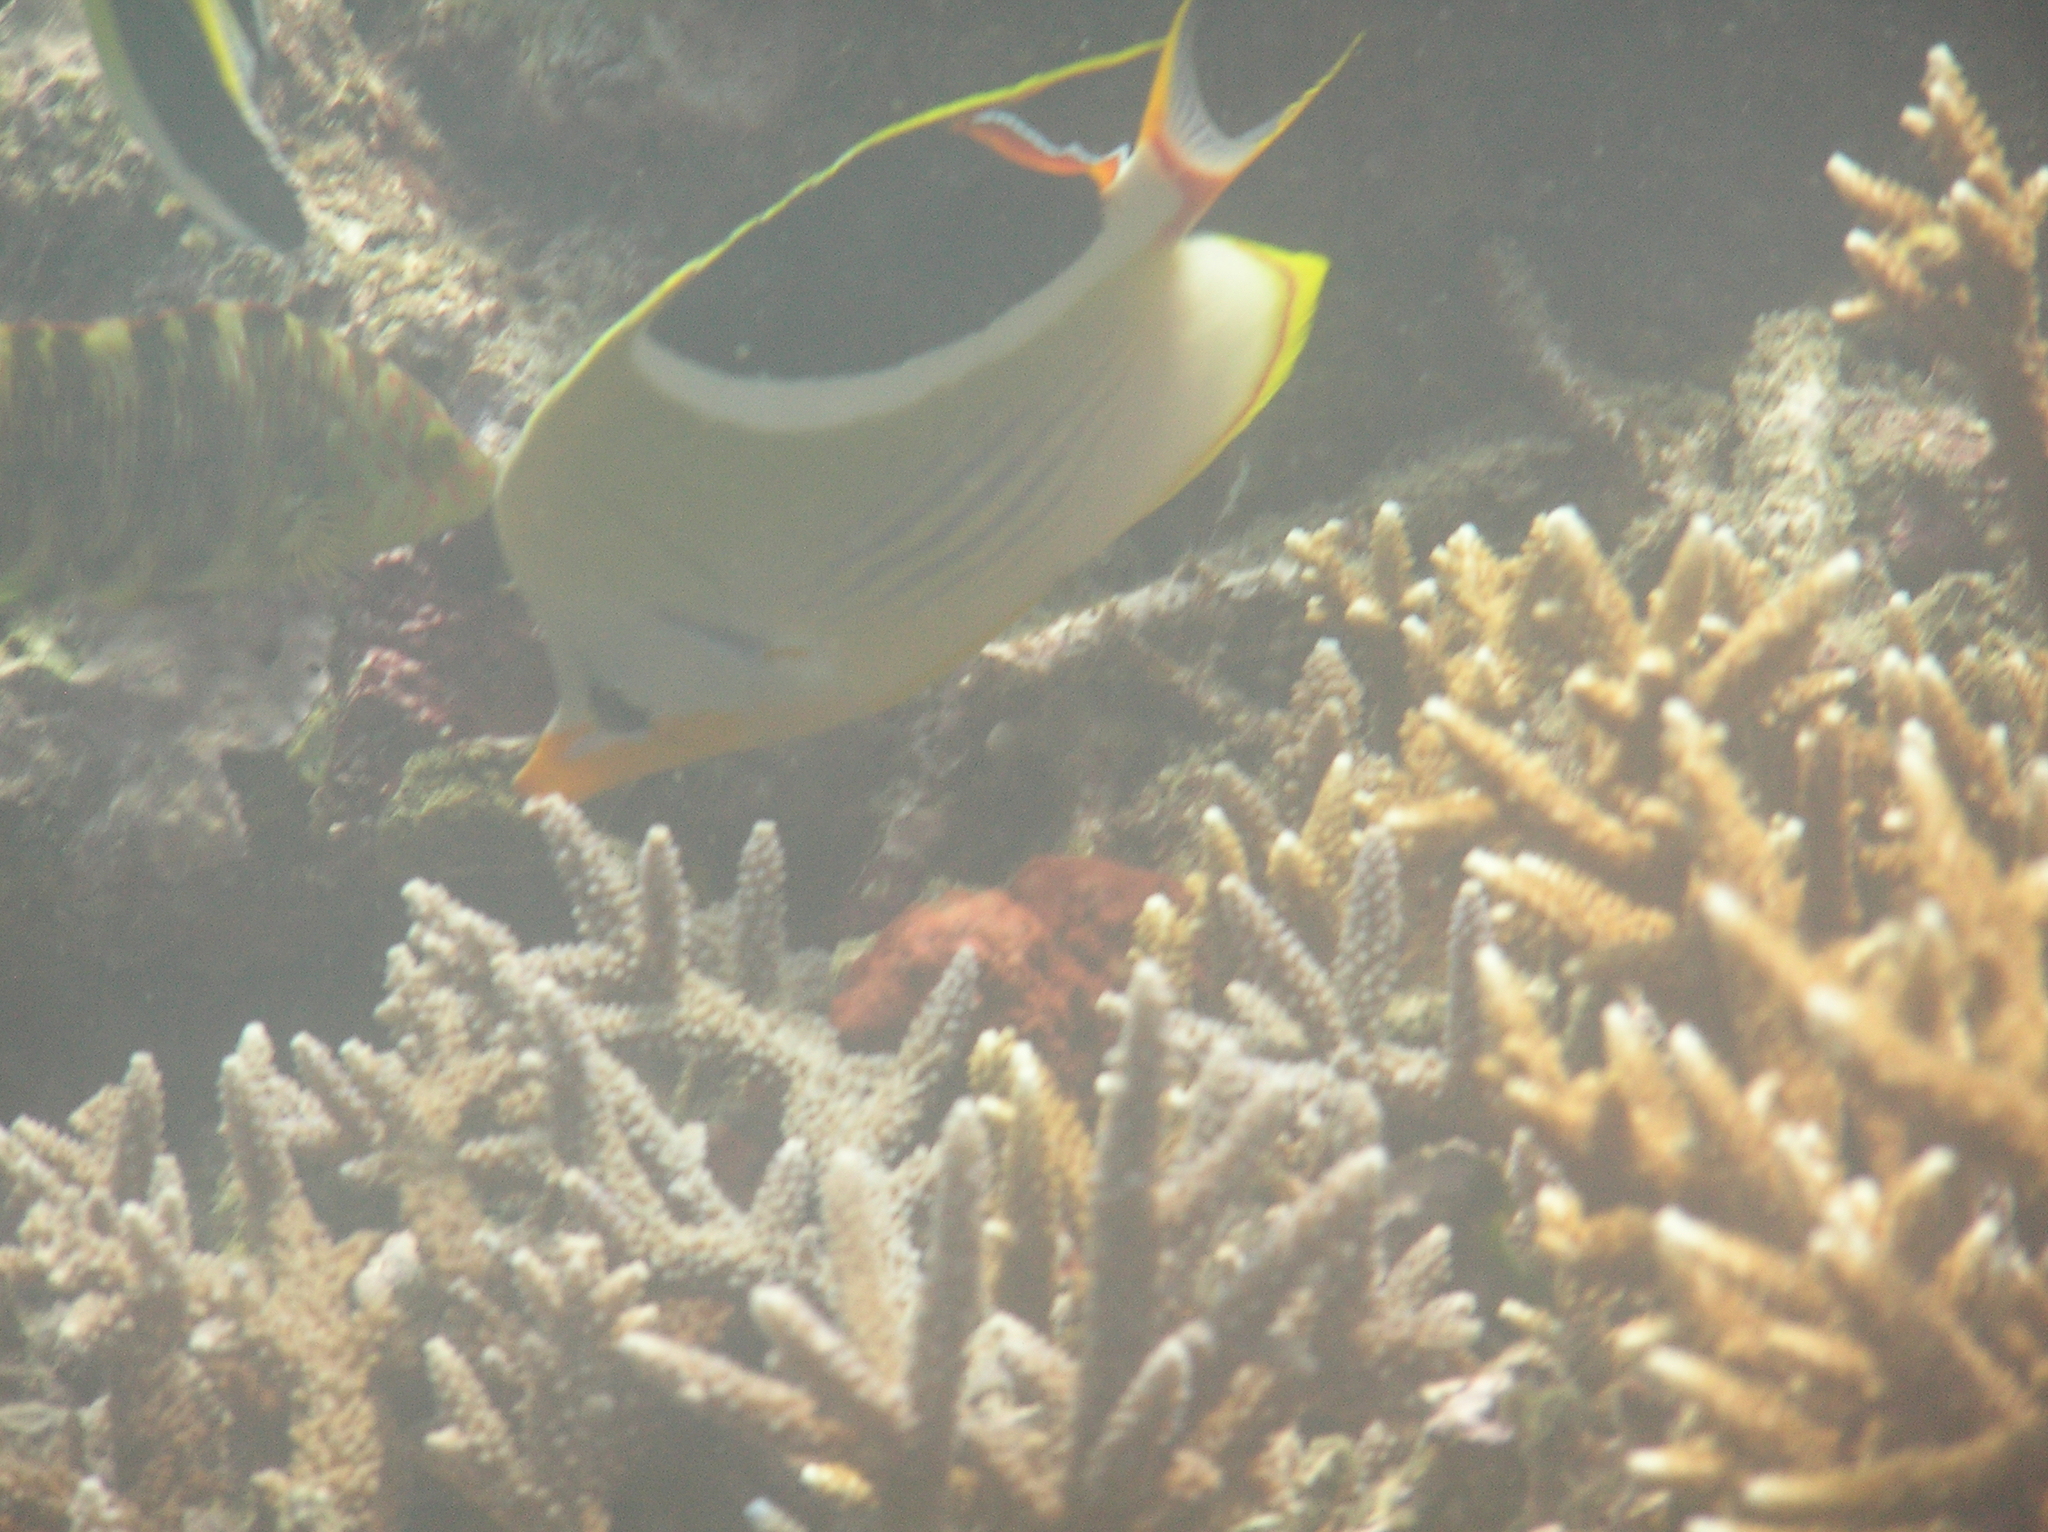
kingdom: Animalia
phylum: Chordata
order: Perciformes
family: Labridae
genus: Cheilinus
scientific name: Cheilinus trilobatus
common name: Tripletail maori wrasse
